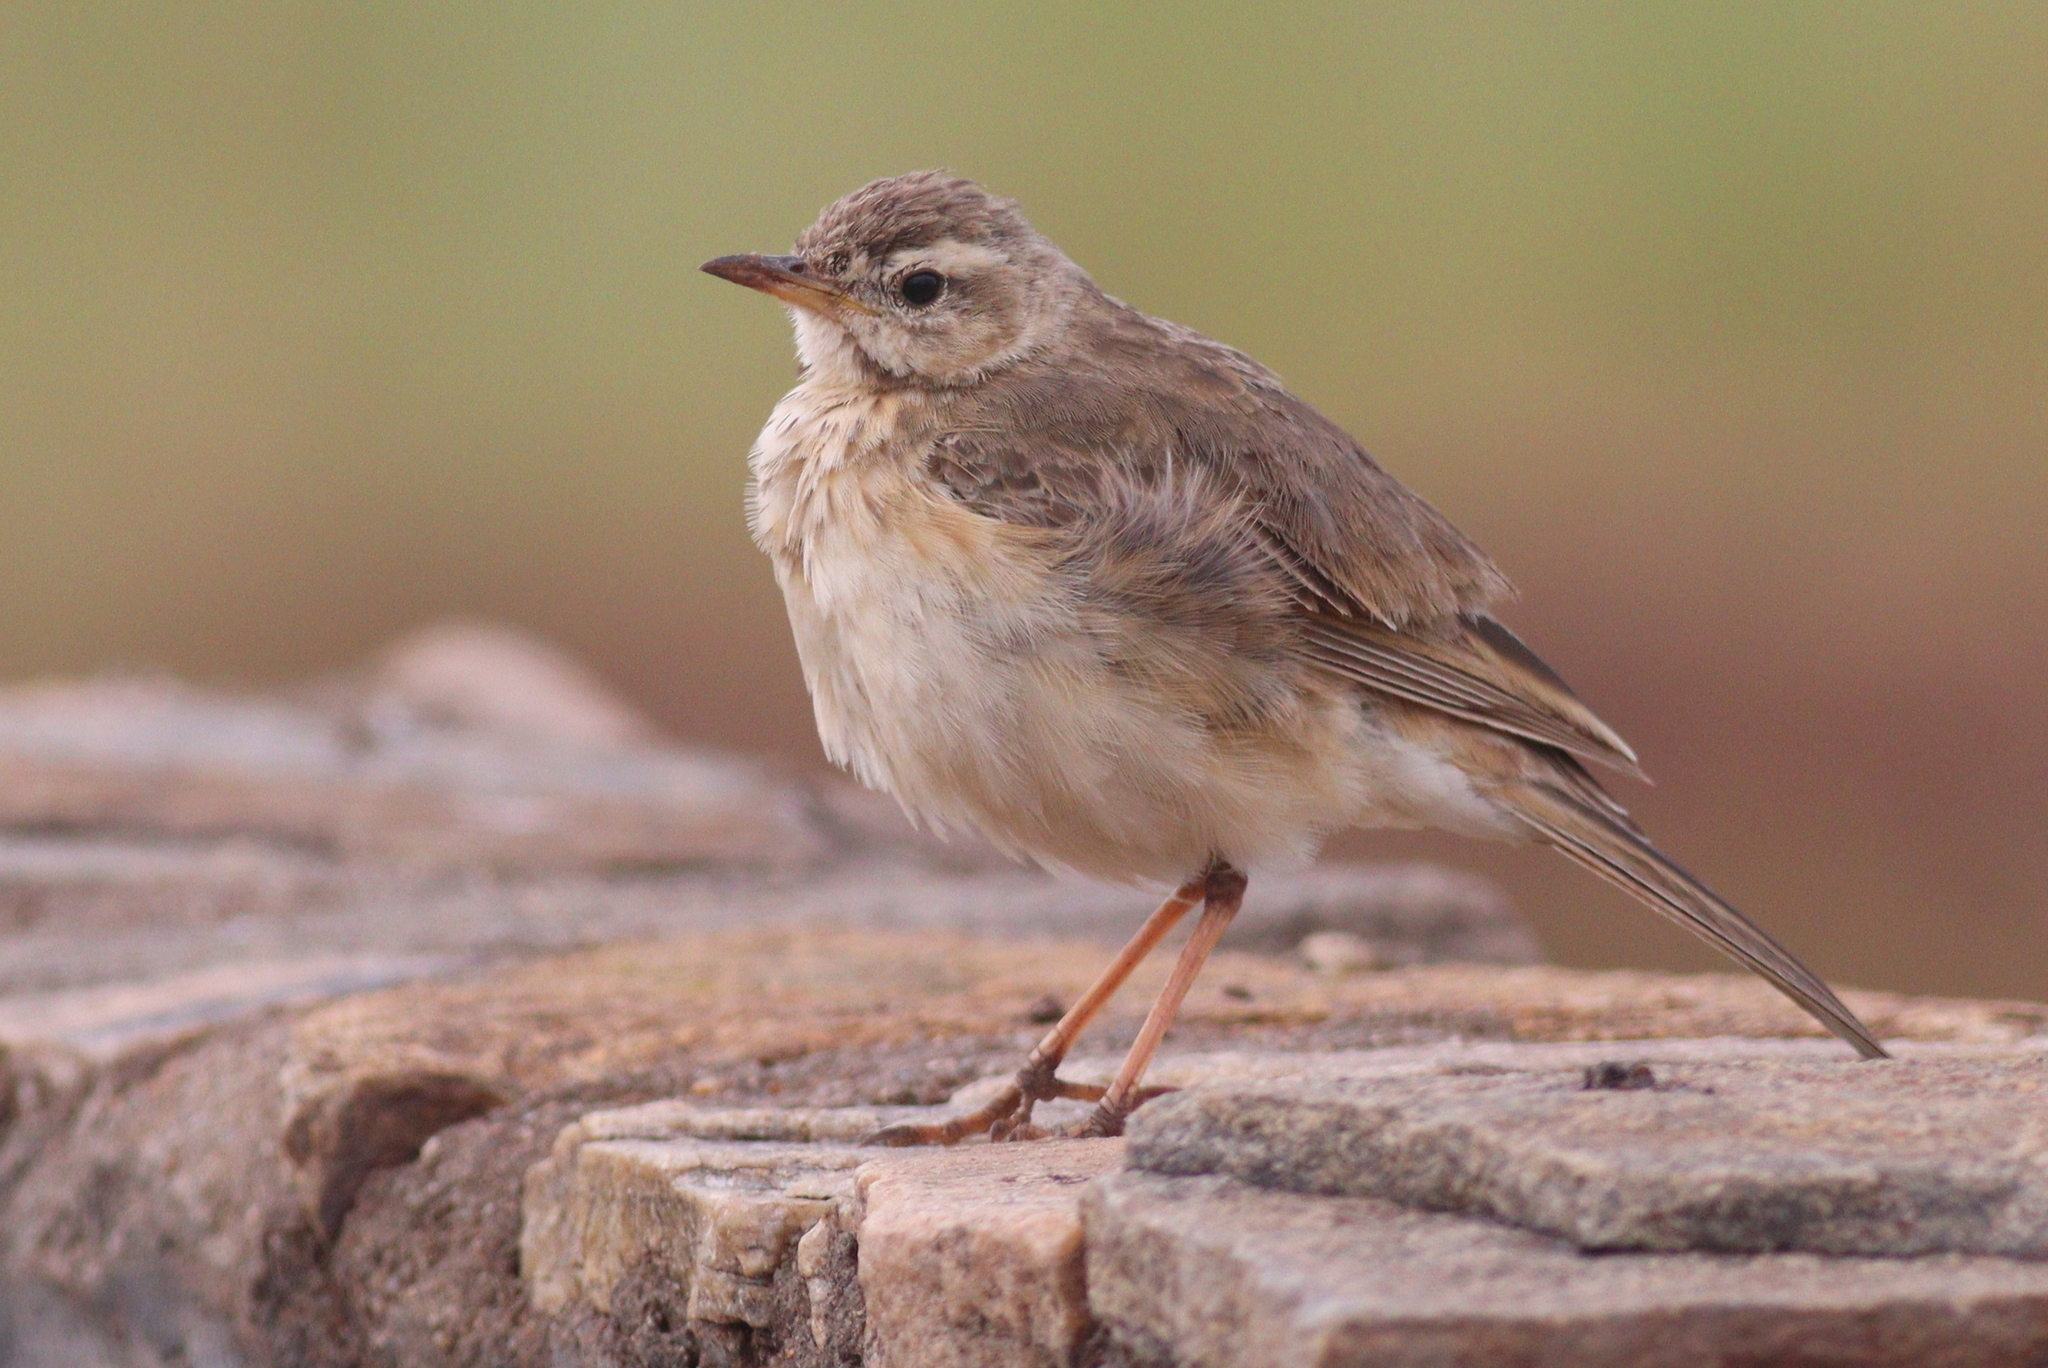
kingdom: Animalia
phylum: Chordata
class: Aves
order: Passeriformes
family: Motacillidae
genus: Anthus
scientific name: Anthus leucophrys
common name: Plain-backed pipit
